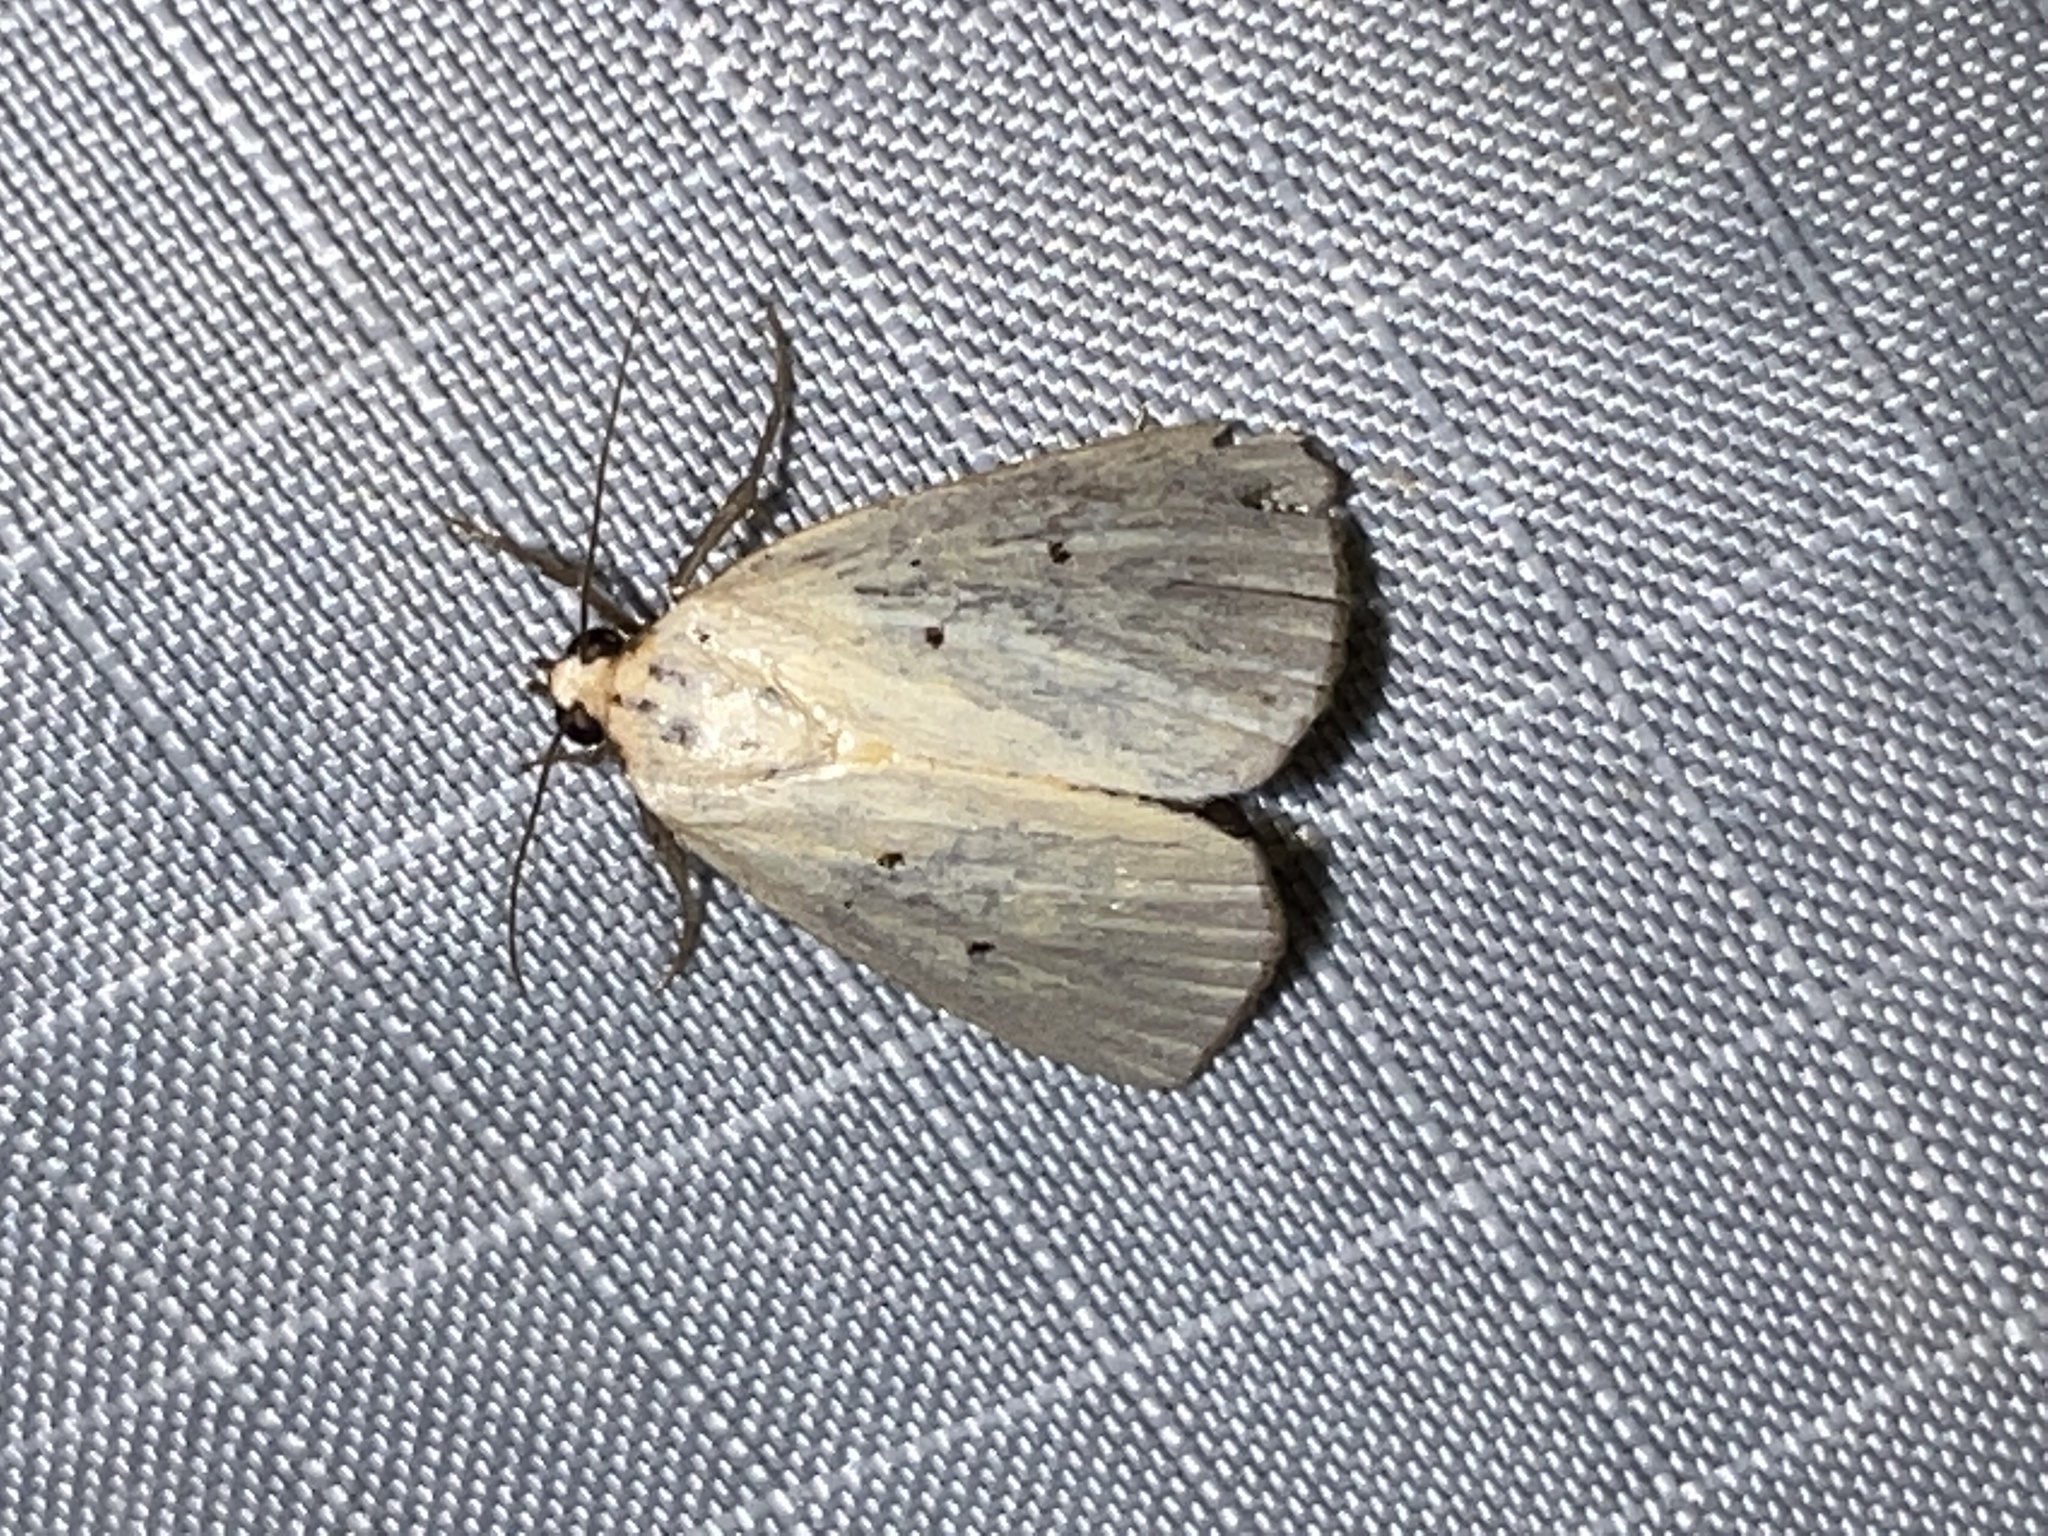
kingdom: Animalia
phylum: Arthropoda
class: Insecta
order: Lepidoptera
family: Noctuidae
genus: Marimatha
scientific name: Marimatha nigrofimbria
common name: Black-bordered lemon moth
